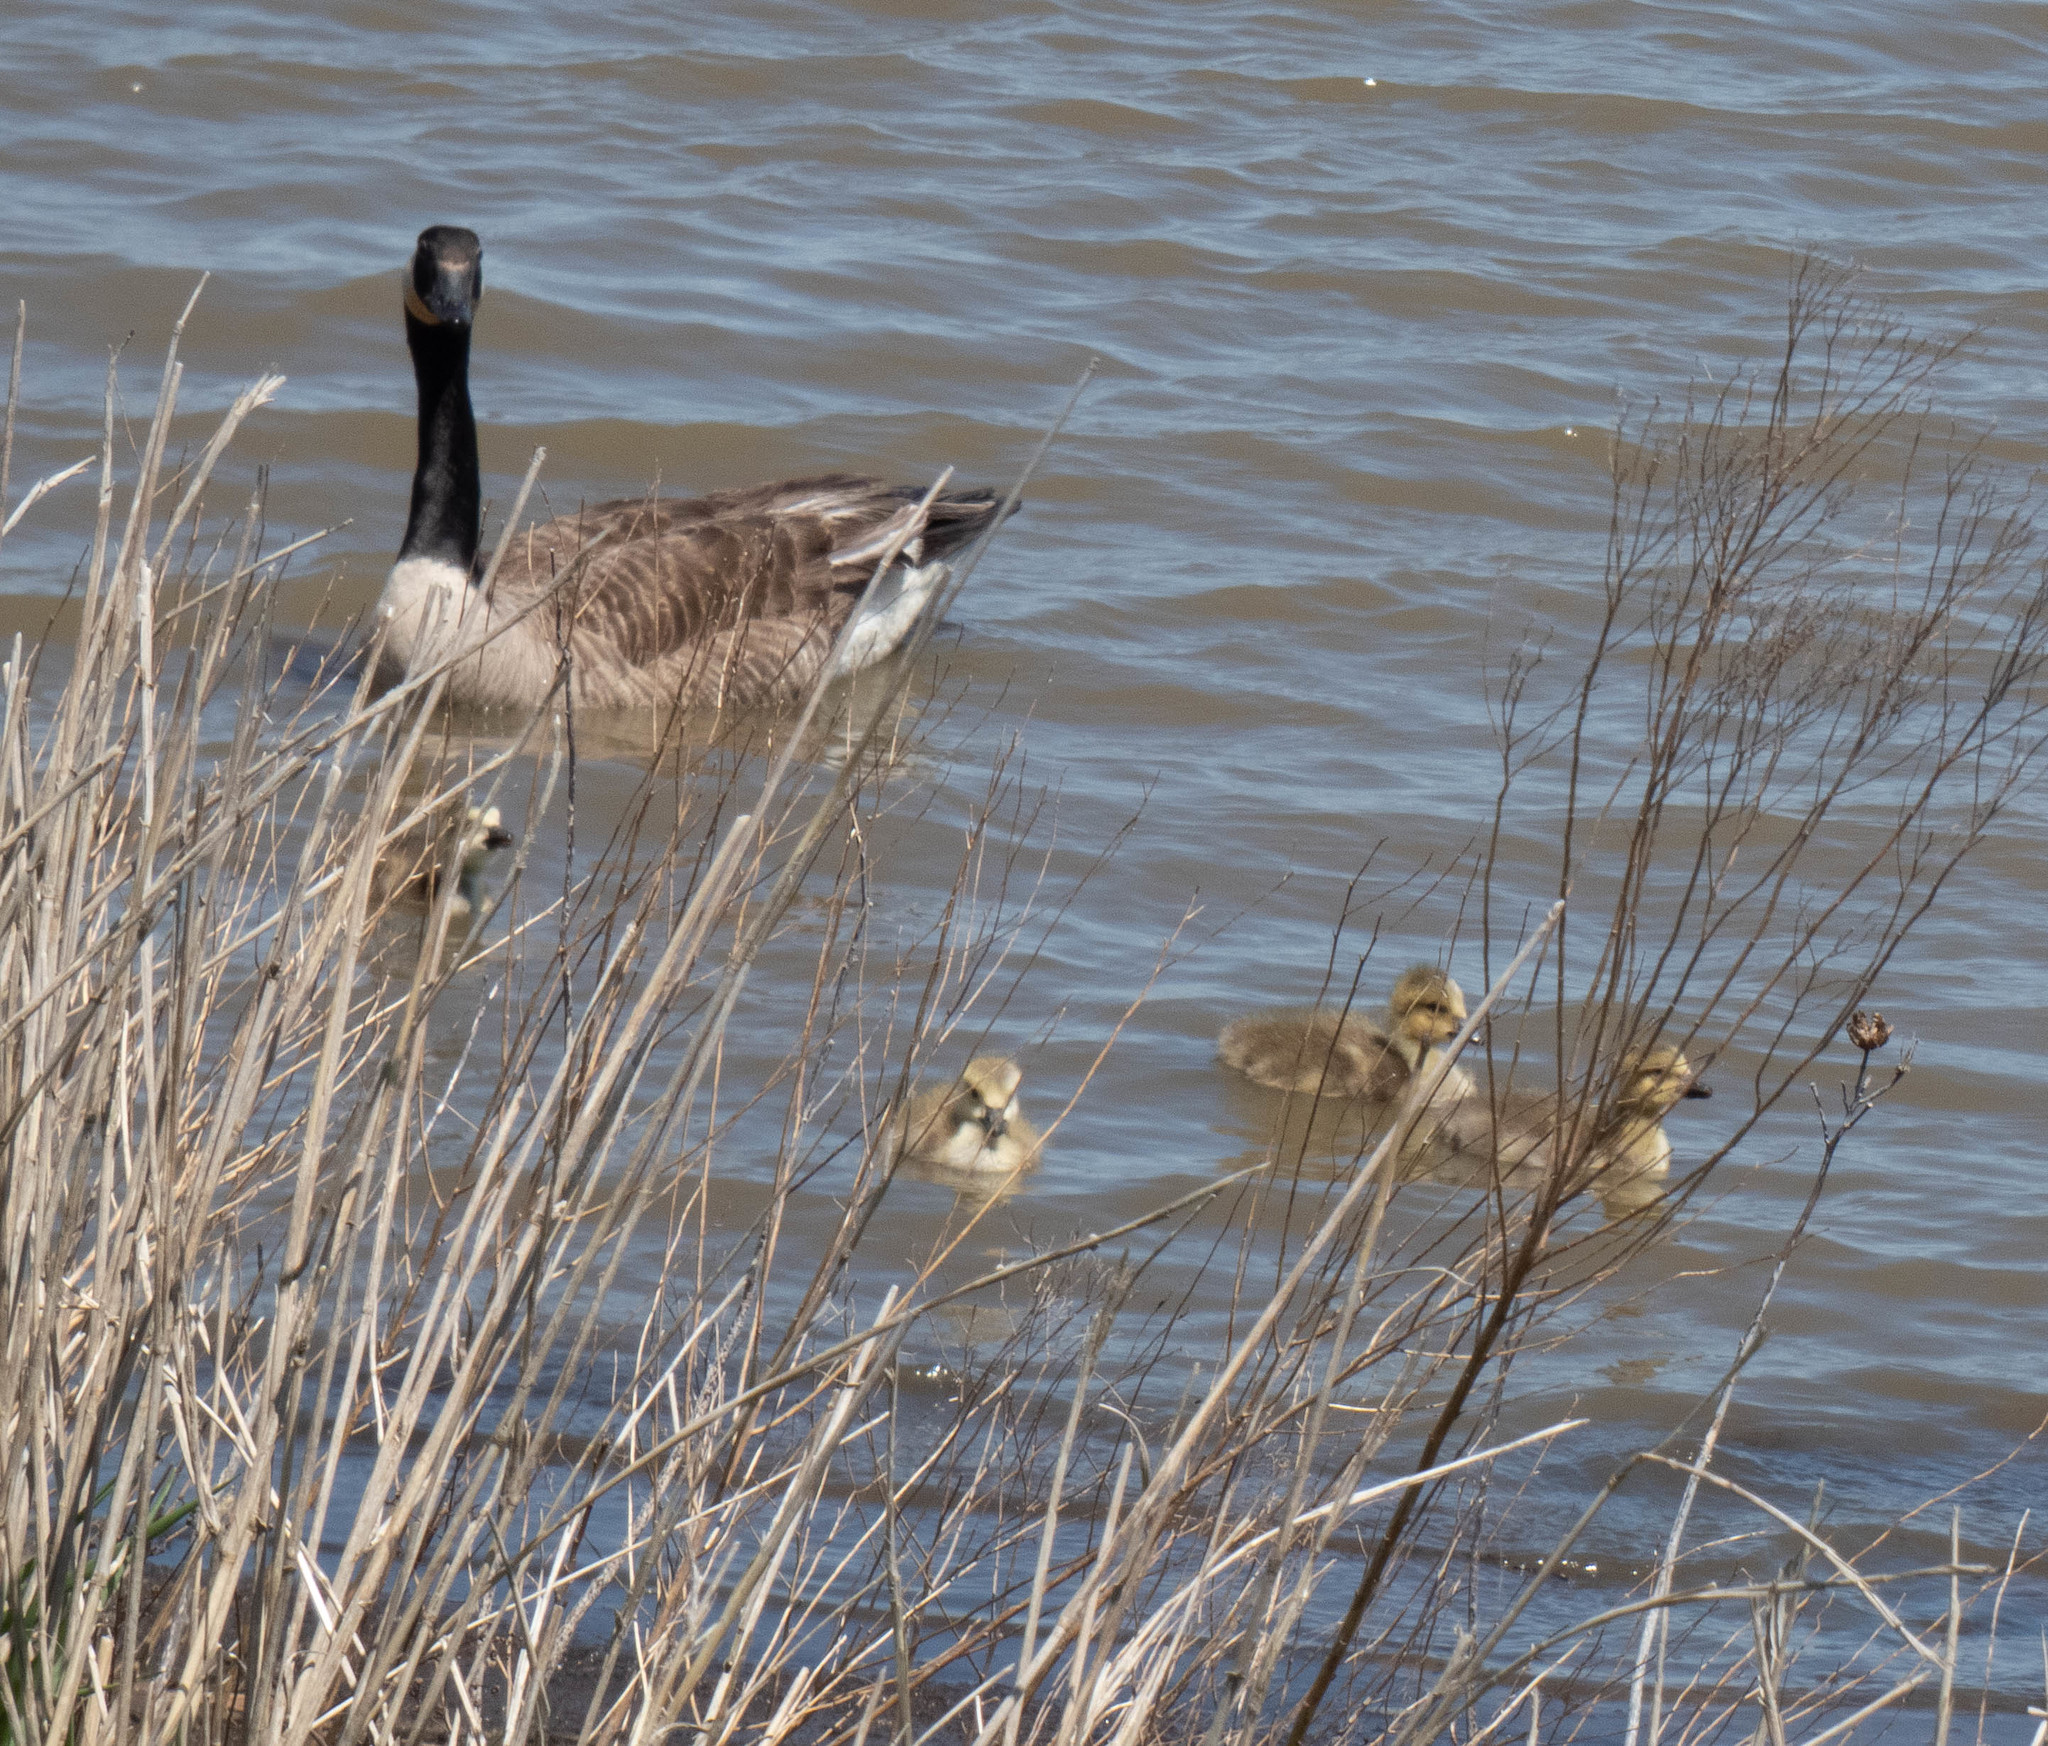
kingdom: Animalia
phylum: Chordata
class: Aves
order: Anseriformes
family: Anatidae
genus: Branta
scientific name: Branta canadensis
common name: Canada goose
